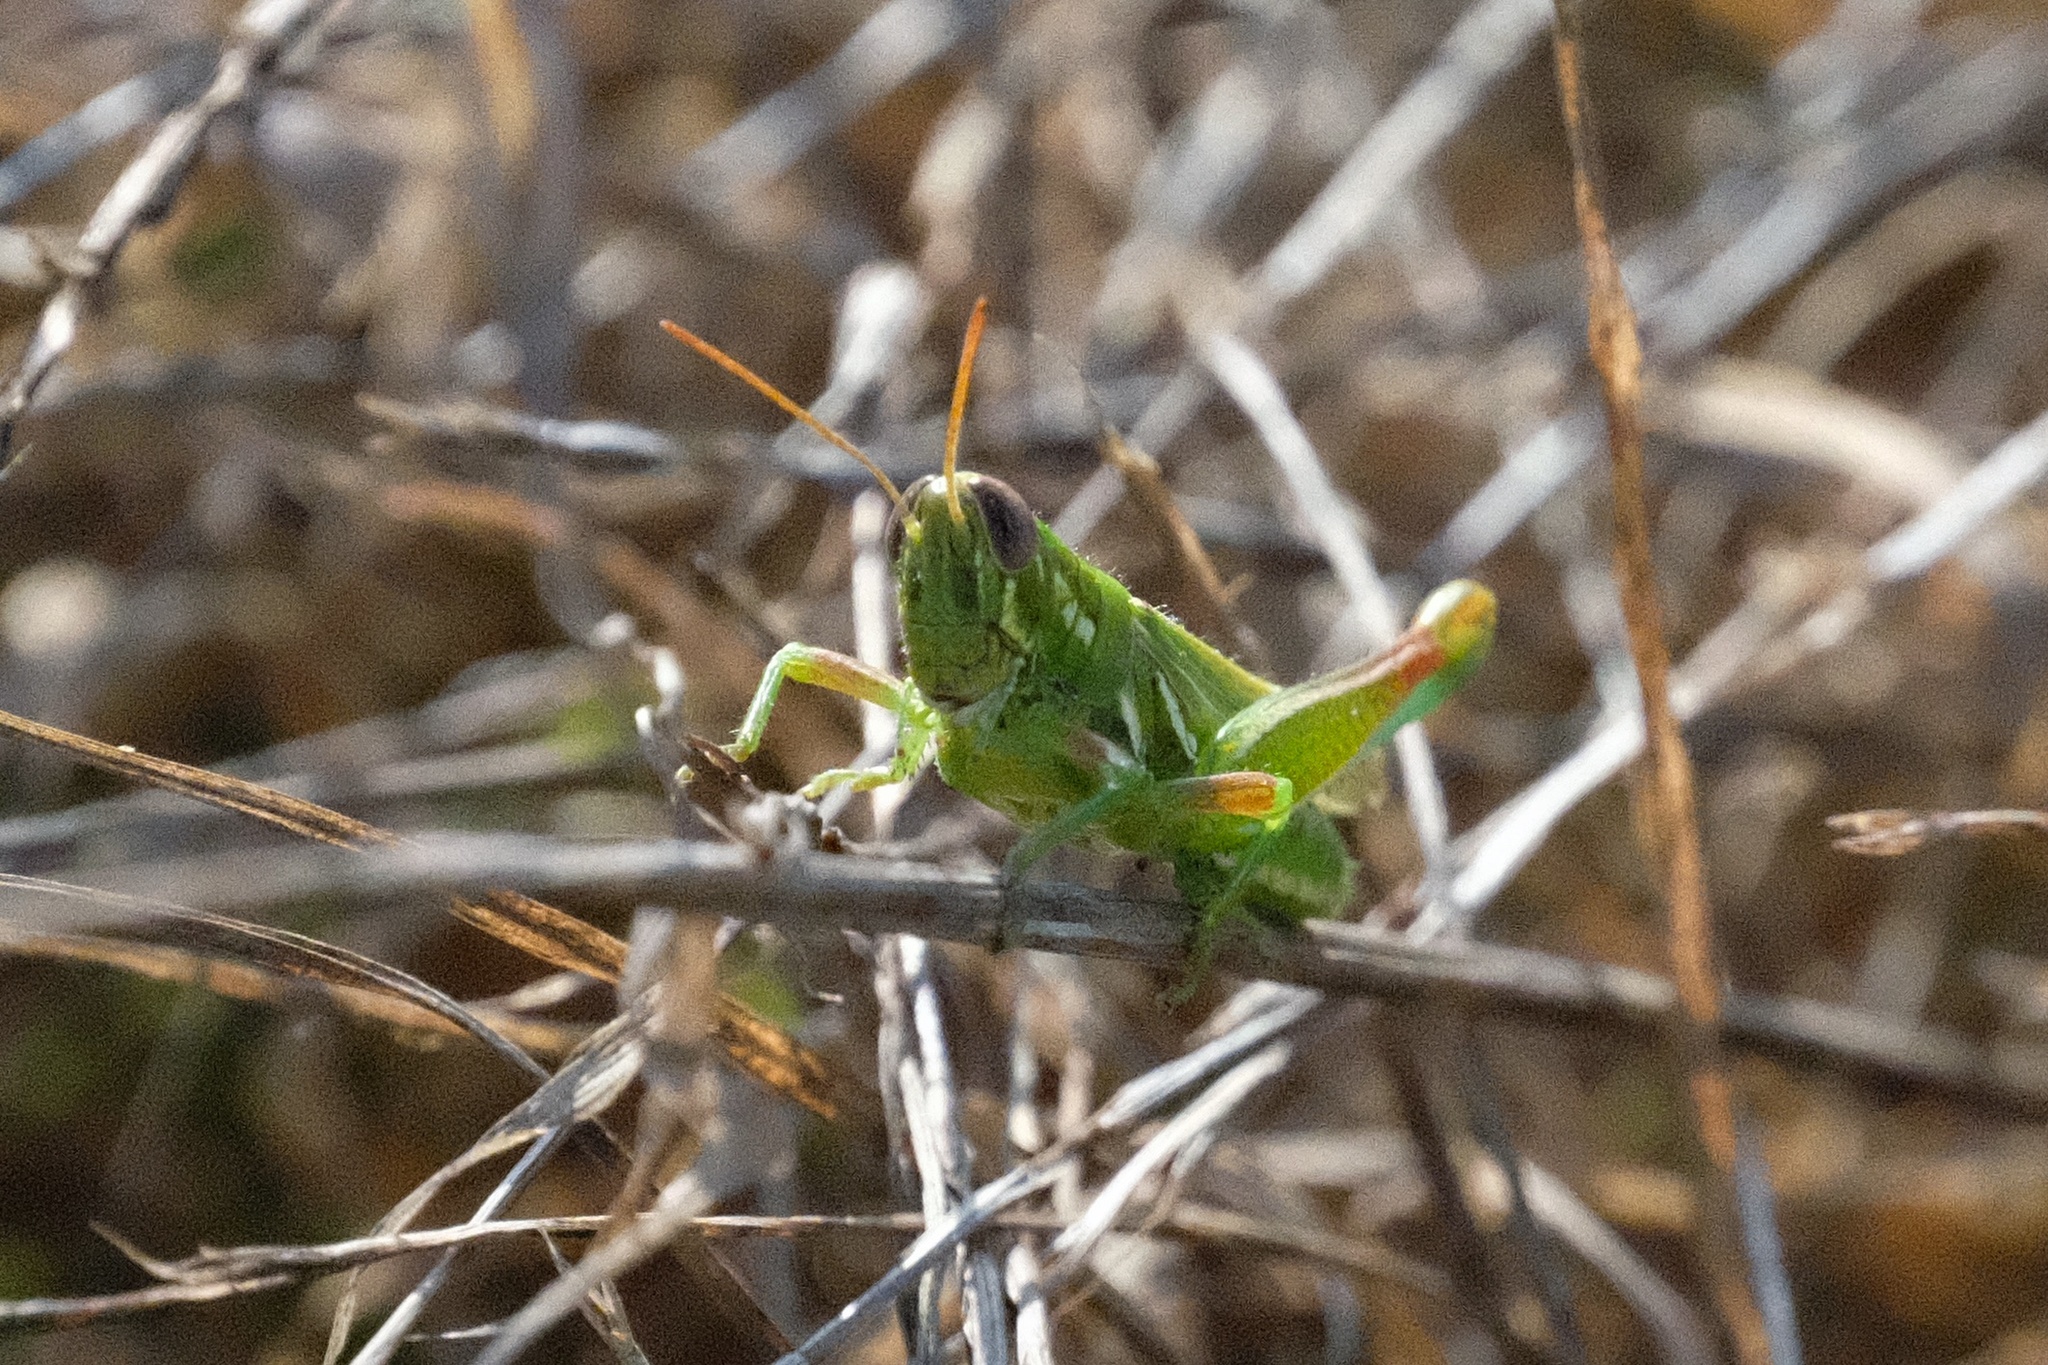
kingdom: Animalia
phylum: Arthropoda
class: Insecta
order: Orthoptera
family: Acrididae
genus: Hesperotettix
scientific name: Hesperotettix viridis
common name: Meadow purple-striped grasshopper
